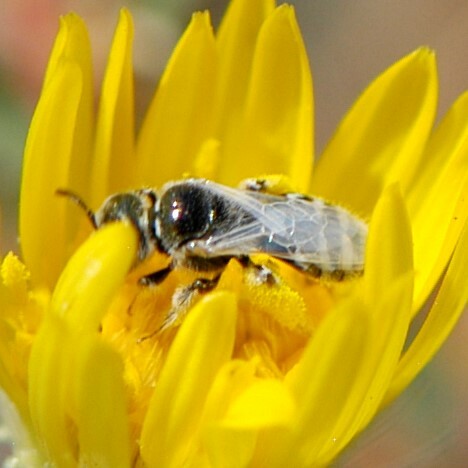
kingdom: Animalia
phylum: Arthropoda
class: Insecta
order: Hymenoptera
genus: Pentaperdita
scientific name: Pentaperdita
